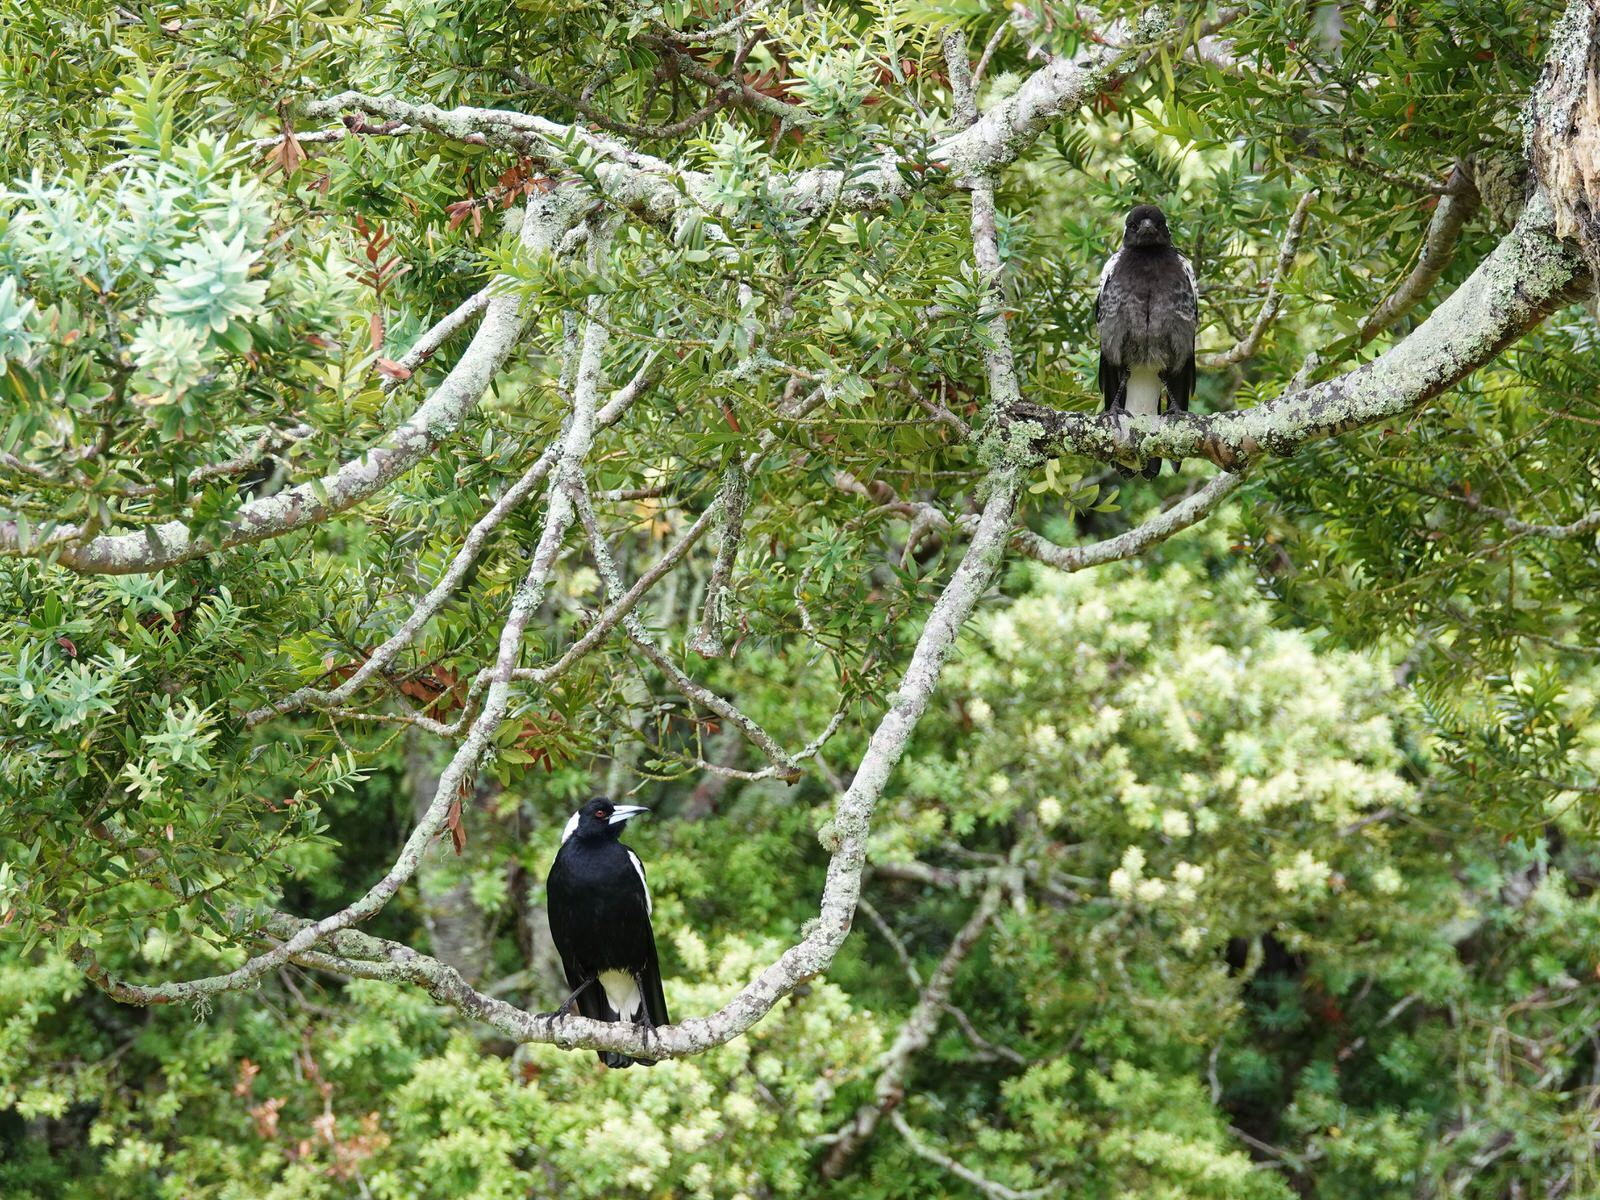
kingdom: Animalia
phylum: Chordata
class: Aves
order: Passeriformes
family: Cracticidae
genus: Gymnorhina
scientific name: Gymnorhina tibicen
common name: Australian magpie
